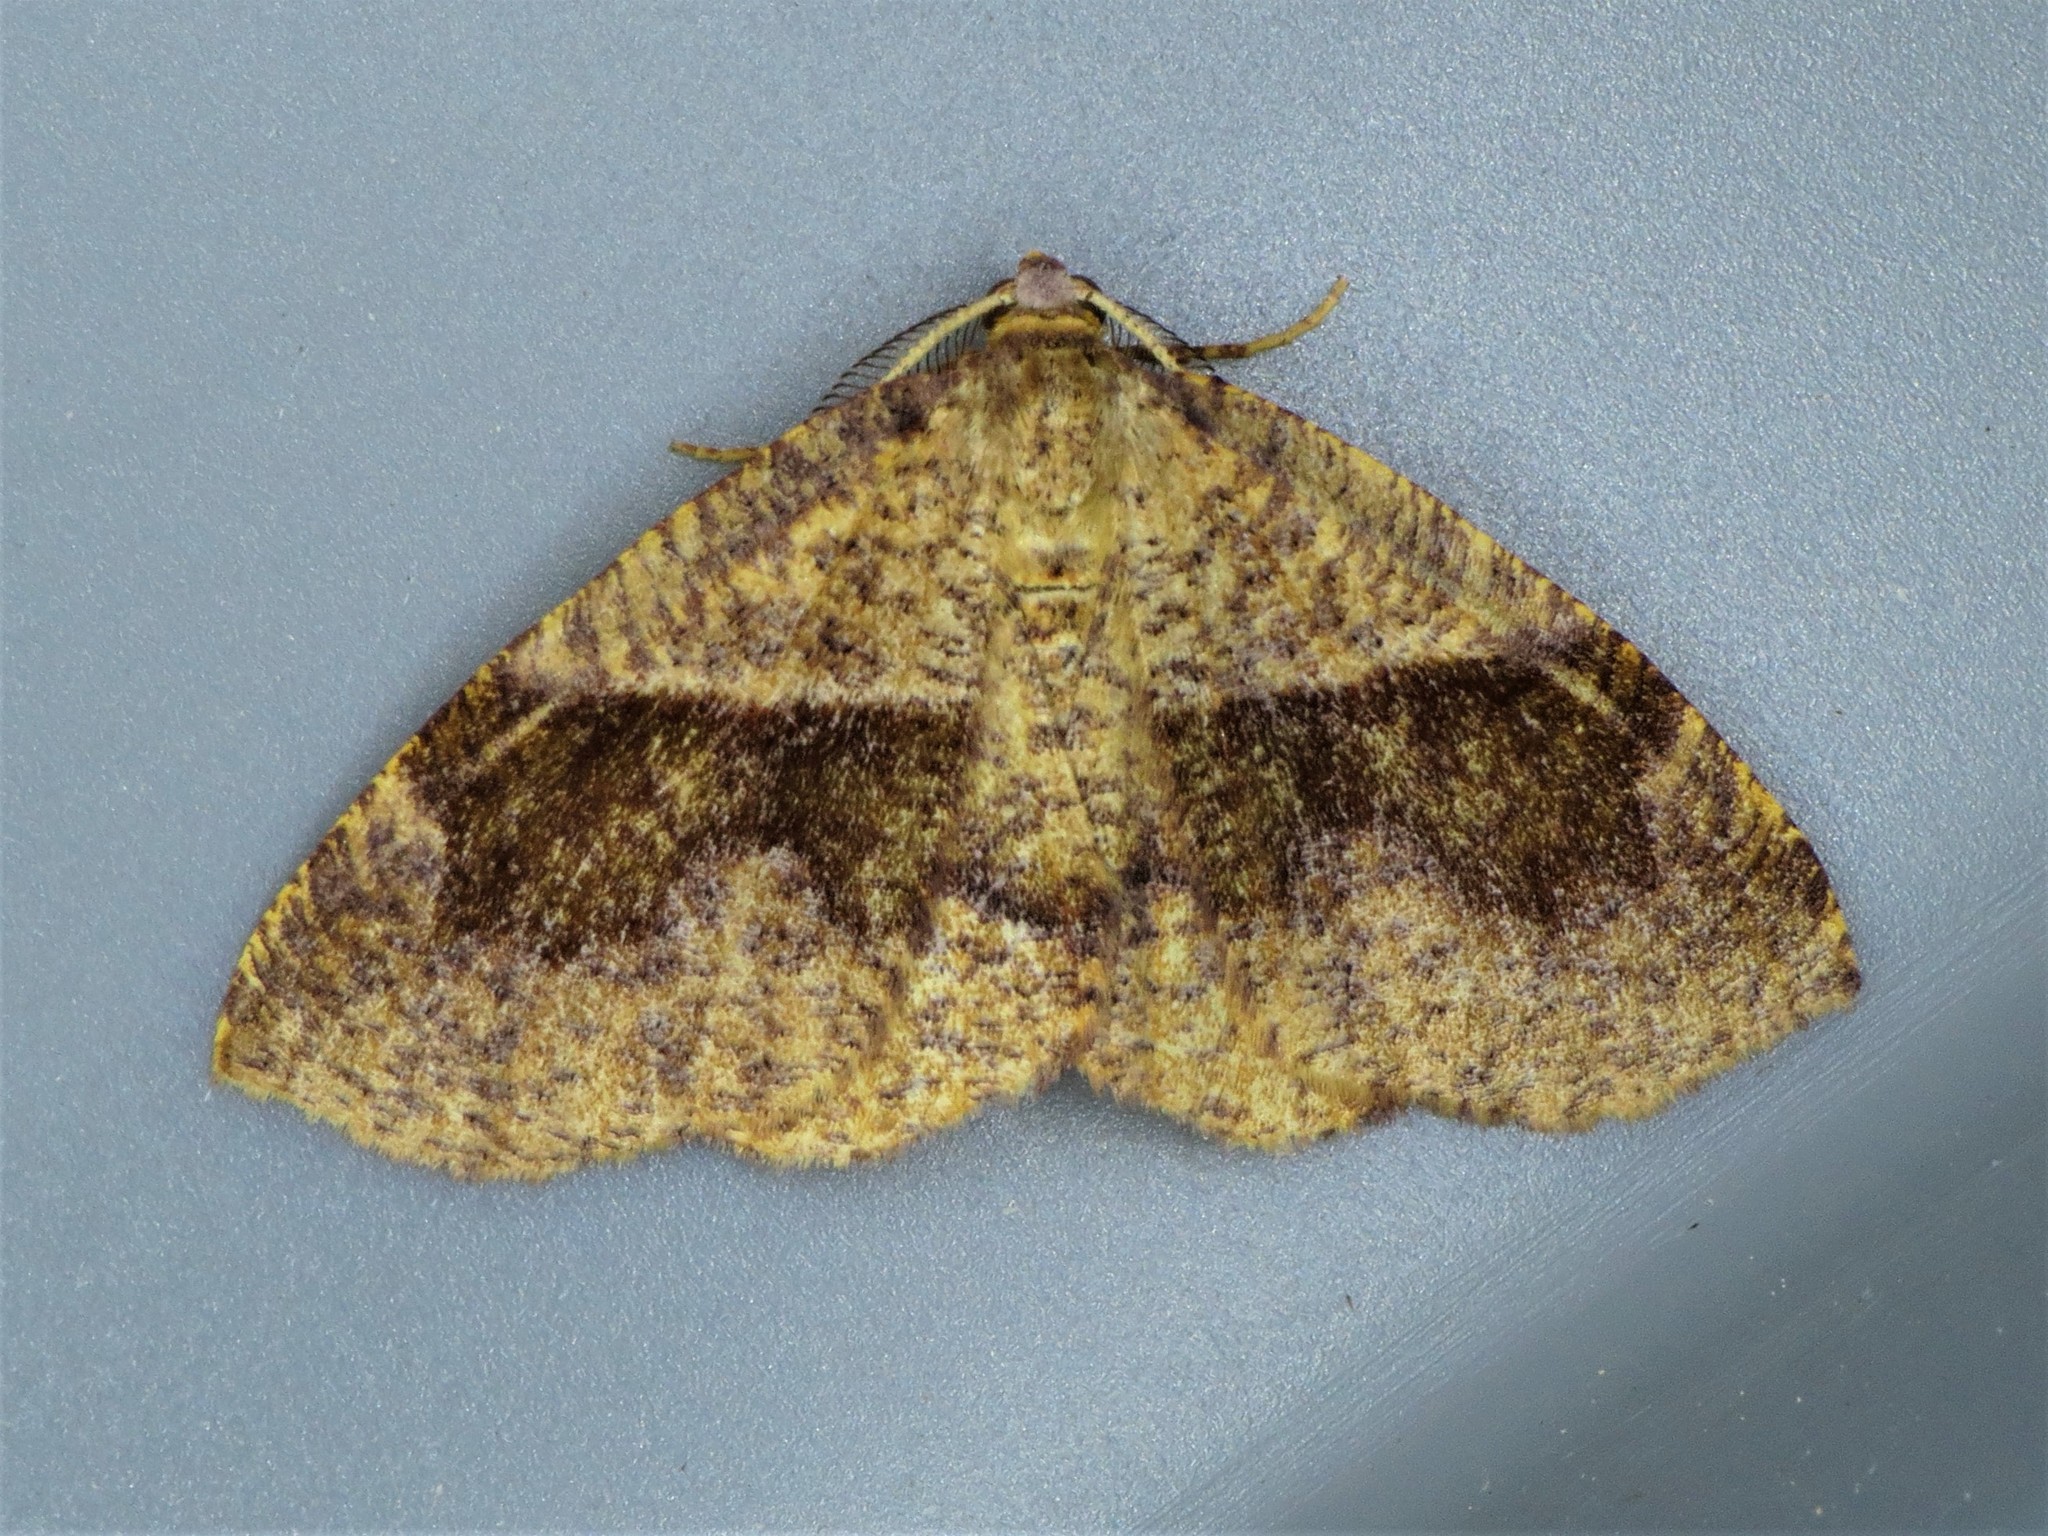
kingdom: Animalia
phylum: Arthropoda
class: Insecta
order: Lepidoptera
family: Geometridae
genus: Plagodis
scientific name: Plagodis pulveraria
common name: Barred umber
